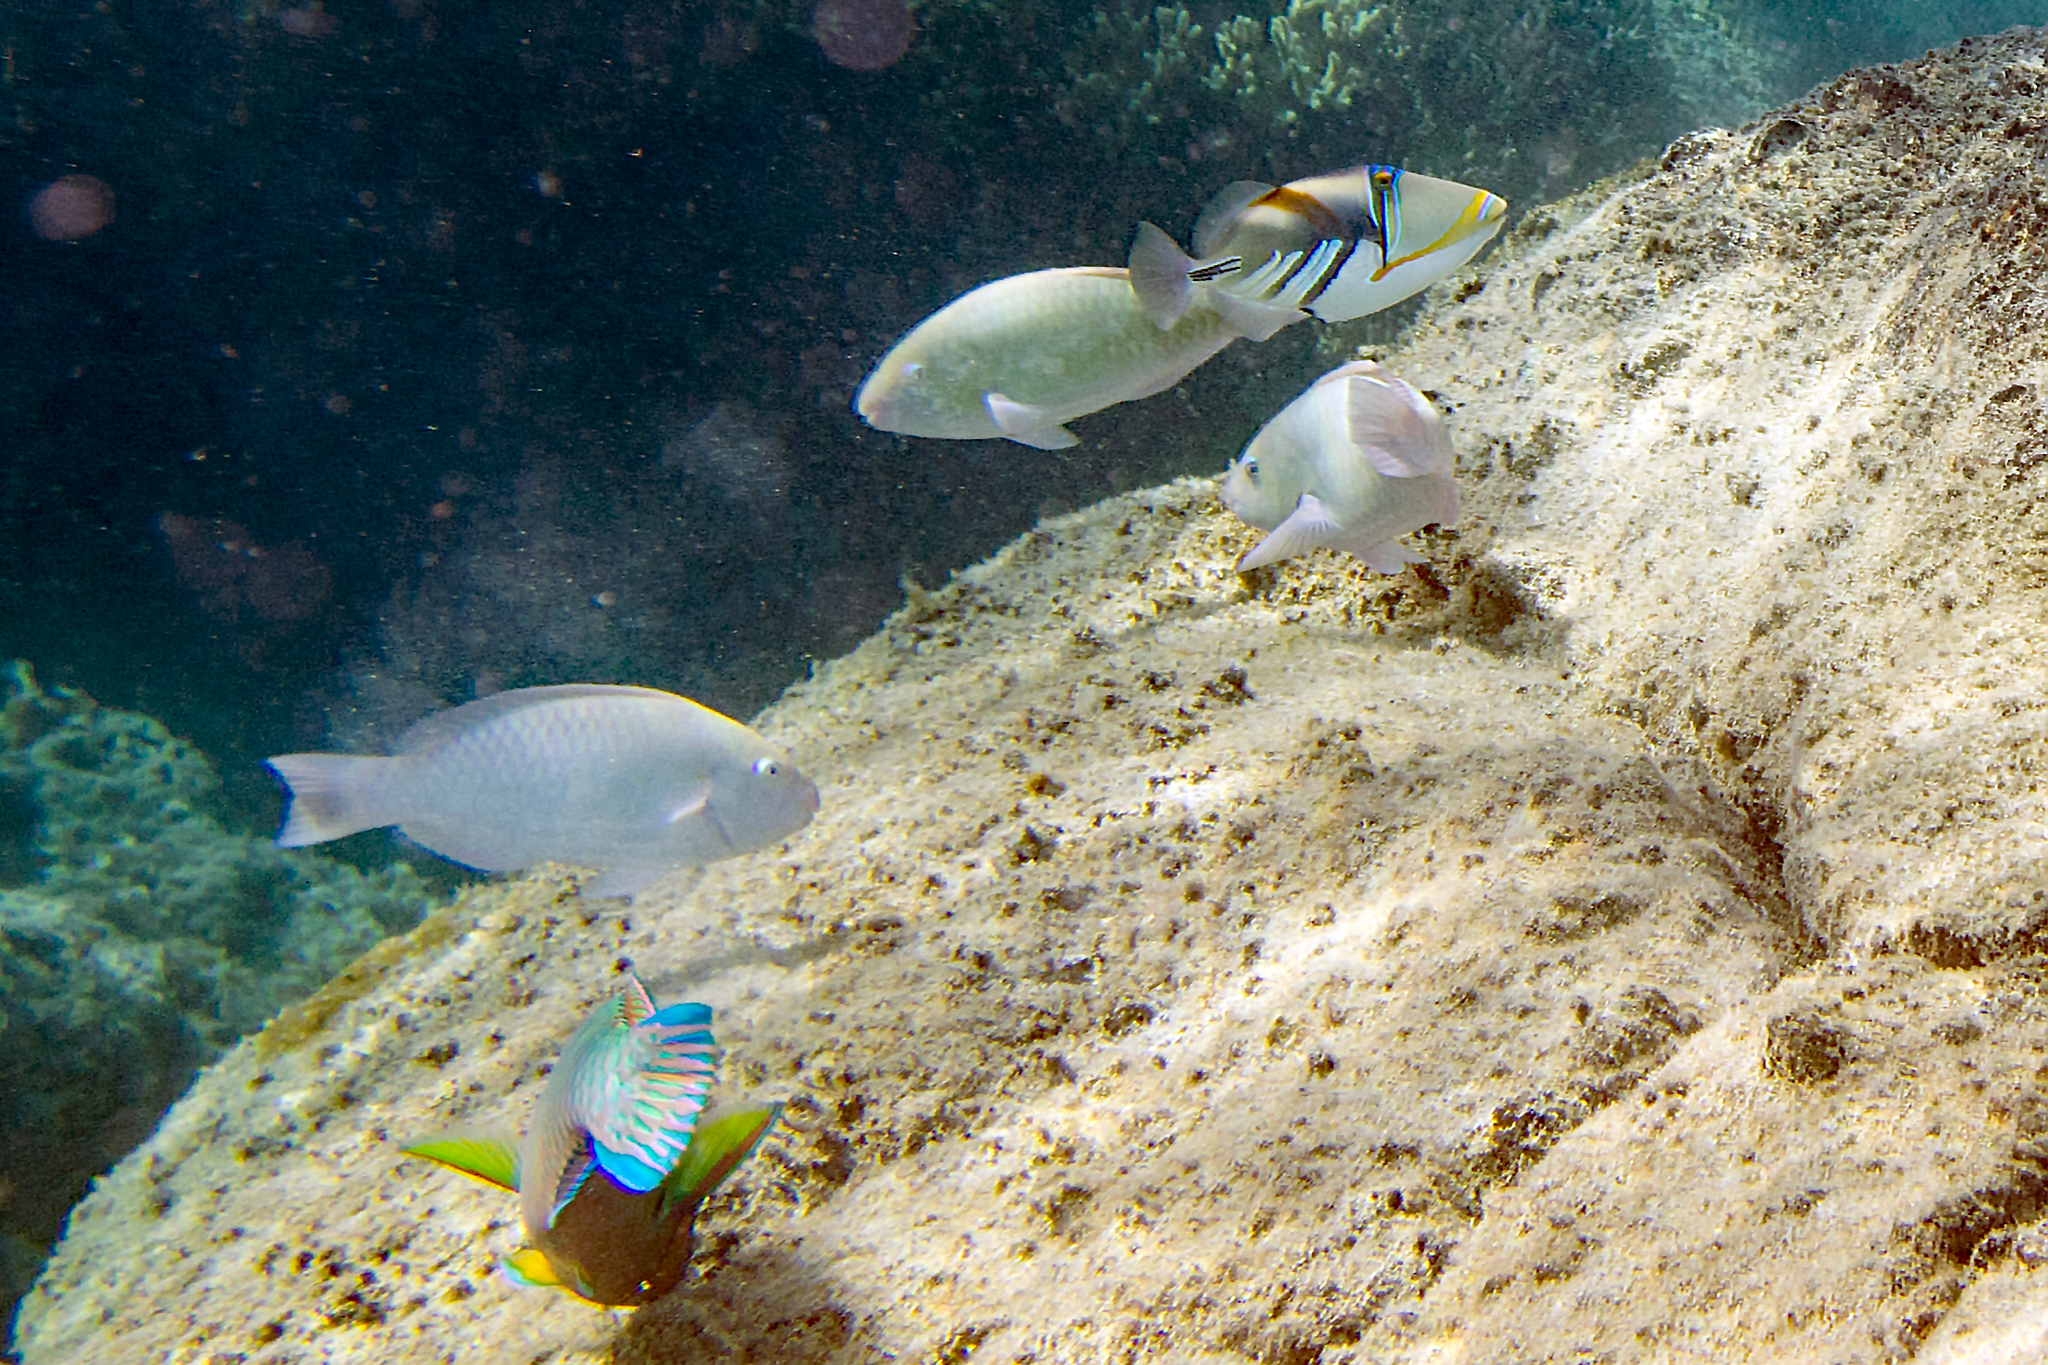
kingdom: Animalia
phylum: Chordata
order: Perciformes
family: Scaridae
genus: Scarus
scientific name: Scarus rivulatus
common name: Surf parrotfish
